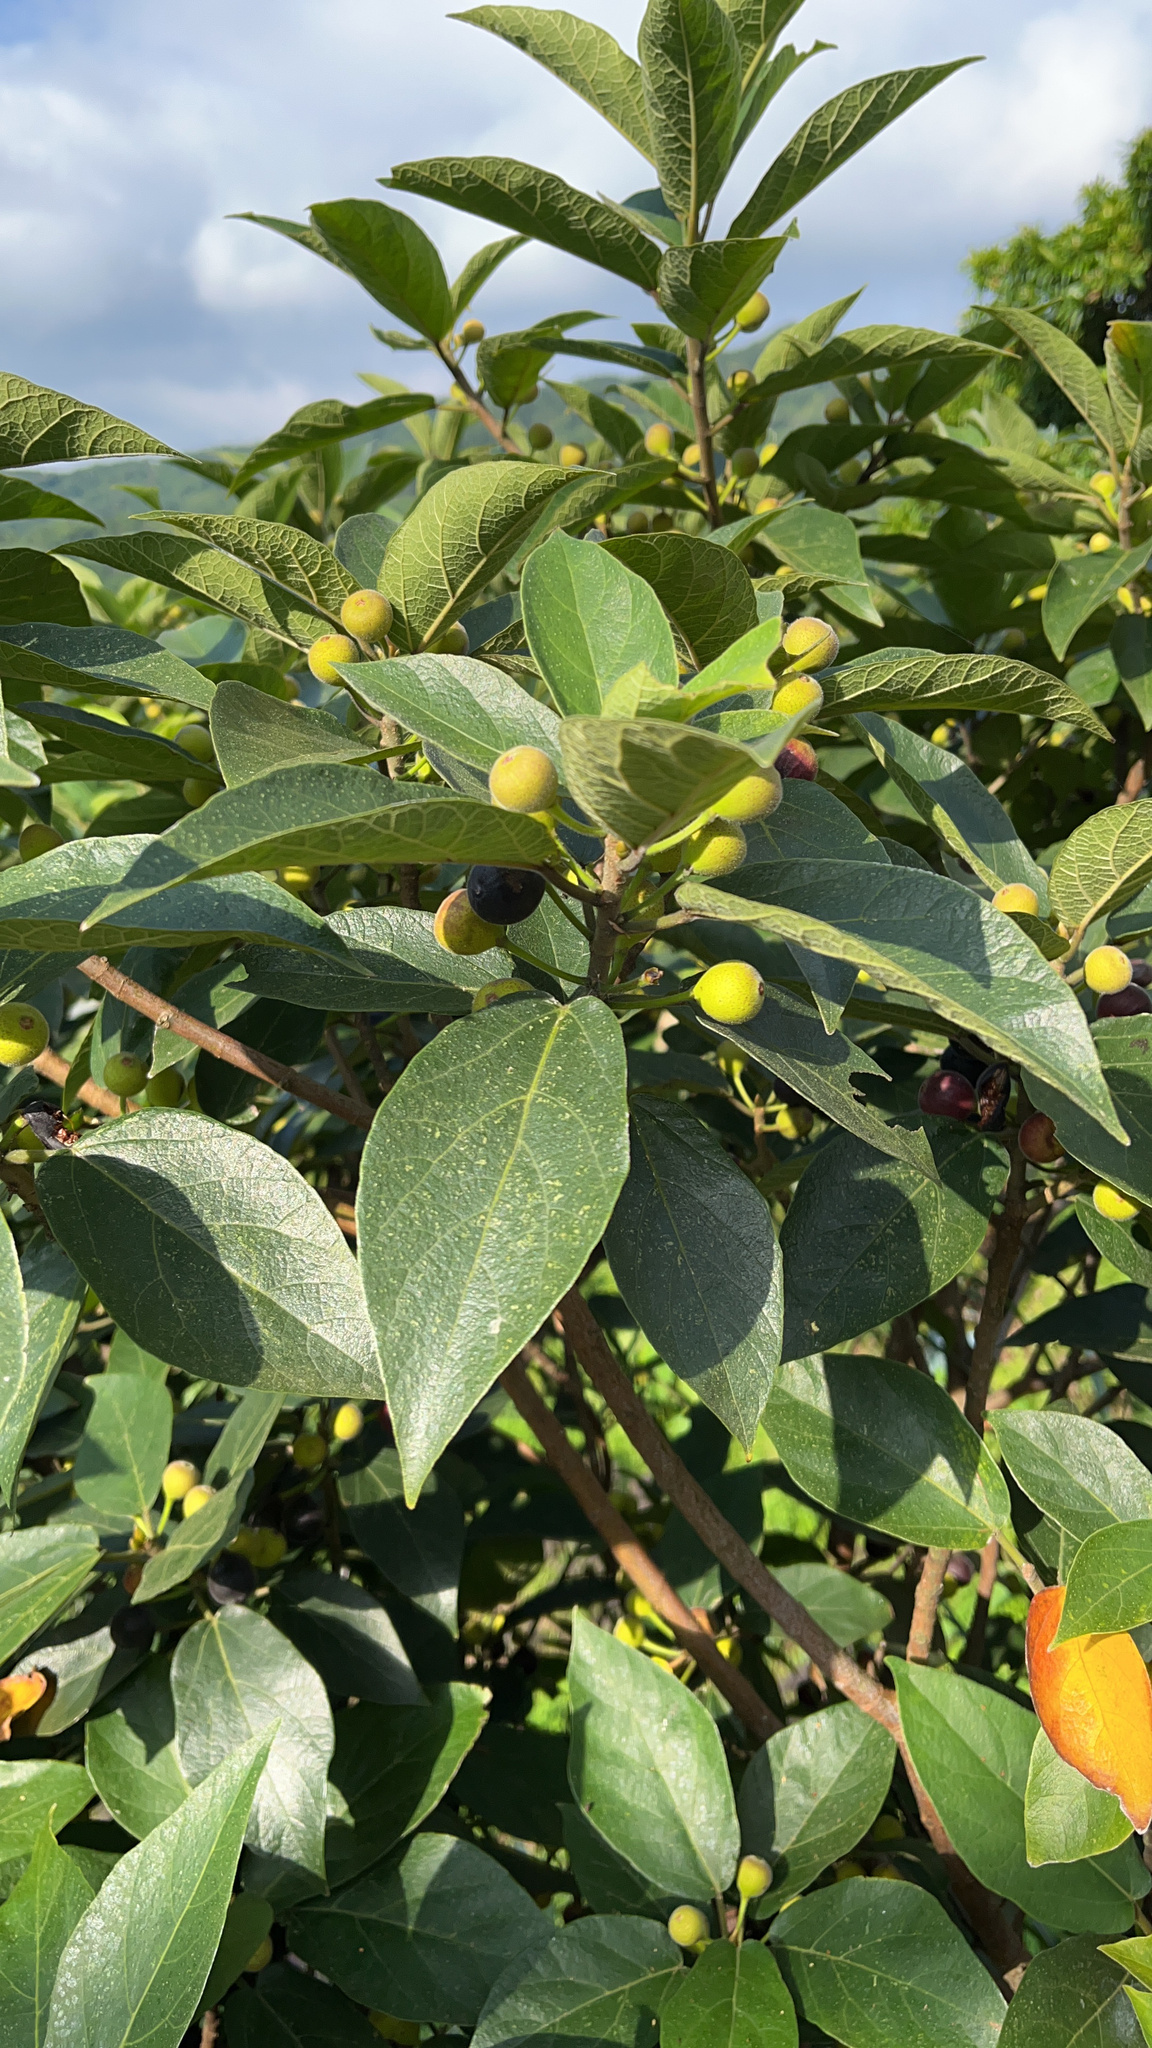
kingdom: Plantae
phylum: Tracheophyta
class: Magnoliopsida
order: Rosales
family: Moraceae
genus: Ficus
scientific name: Ficus erecta
